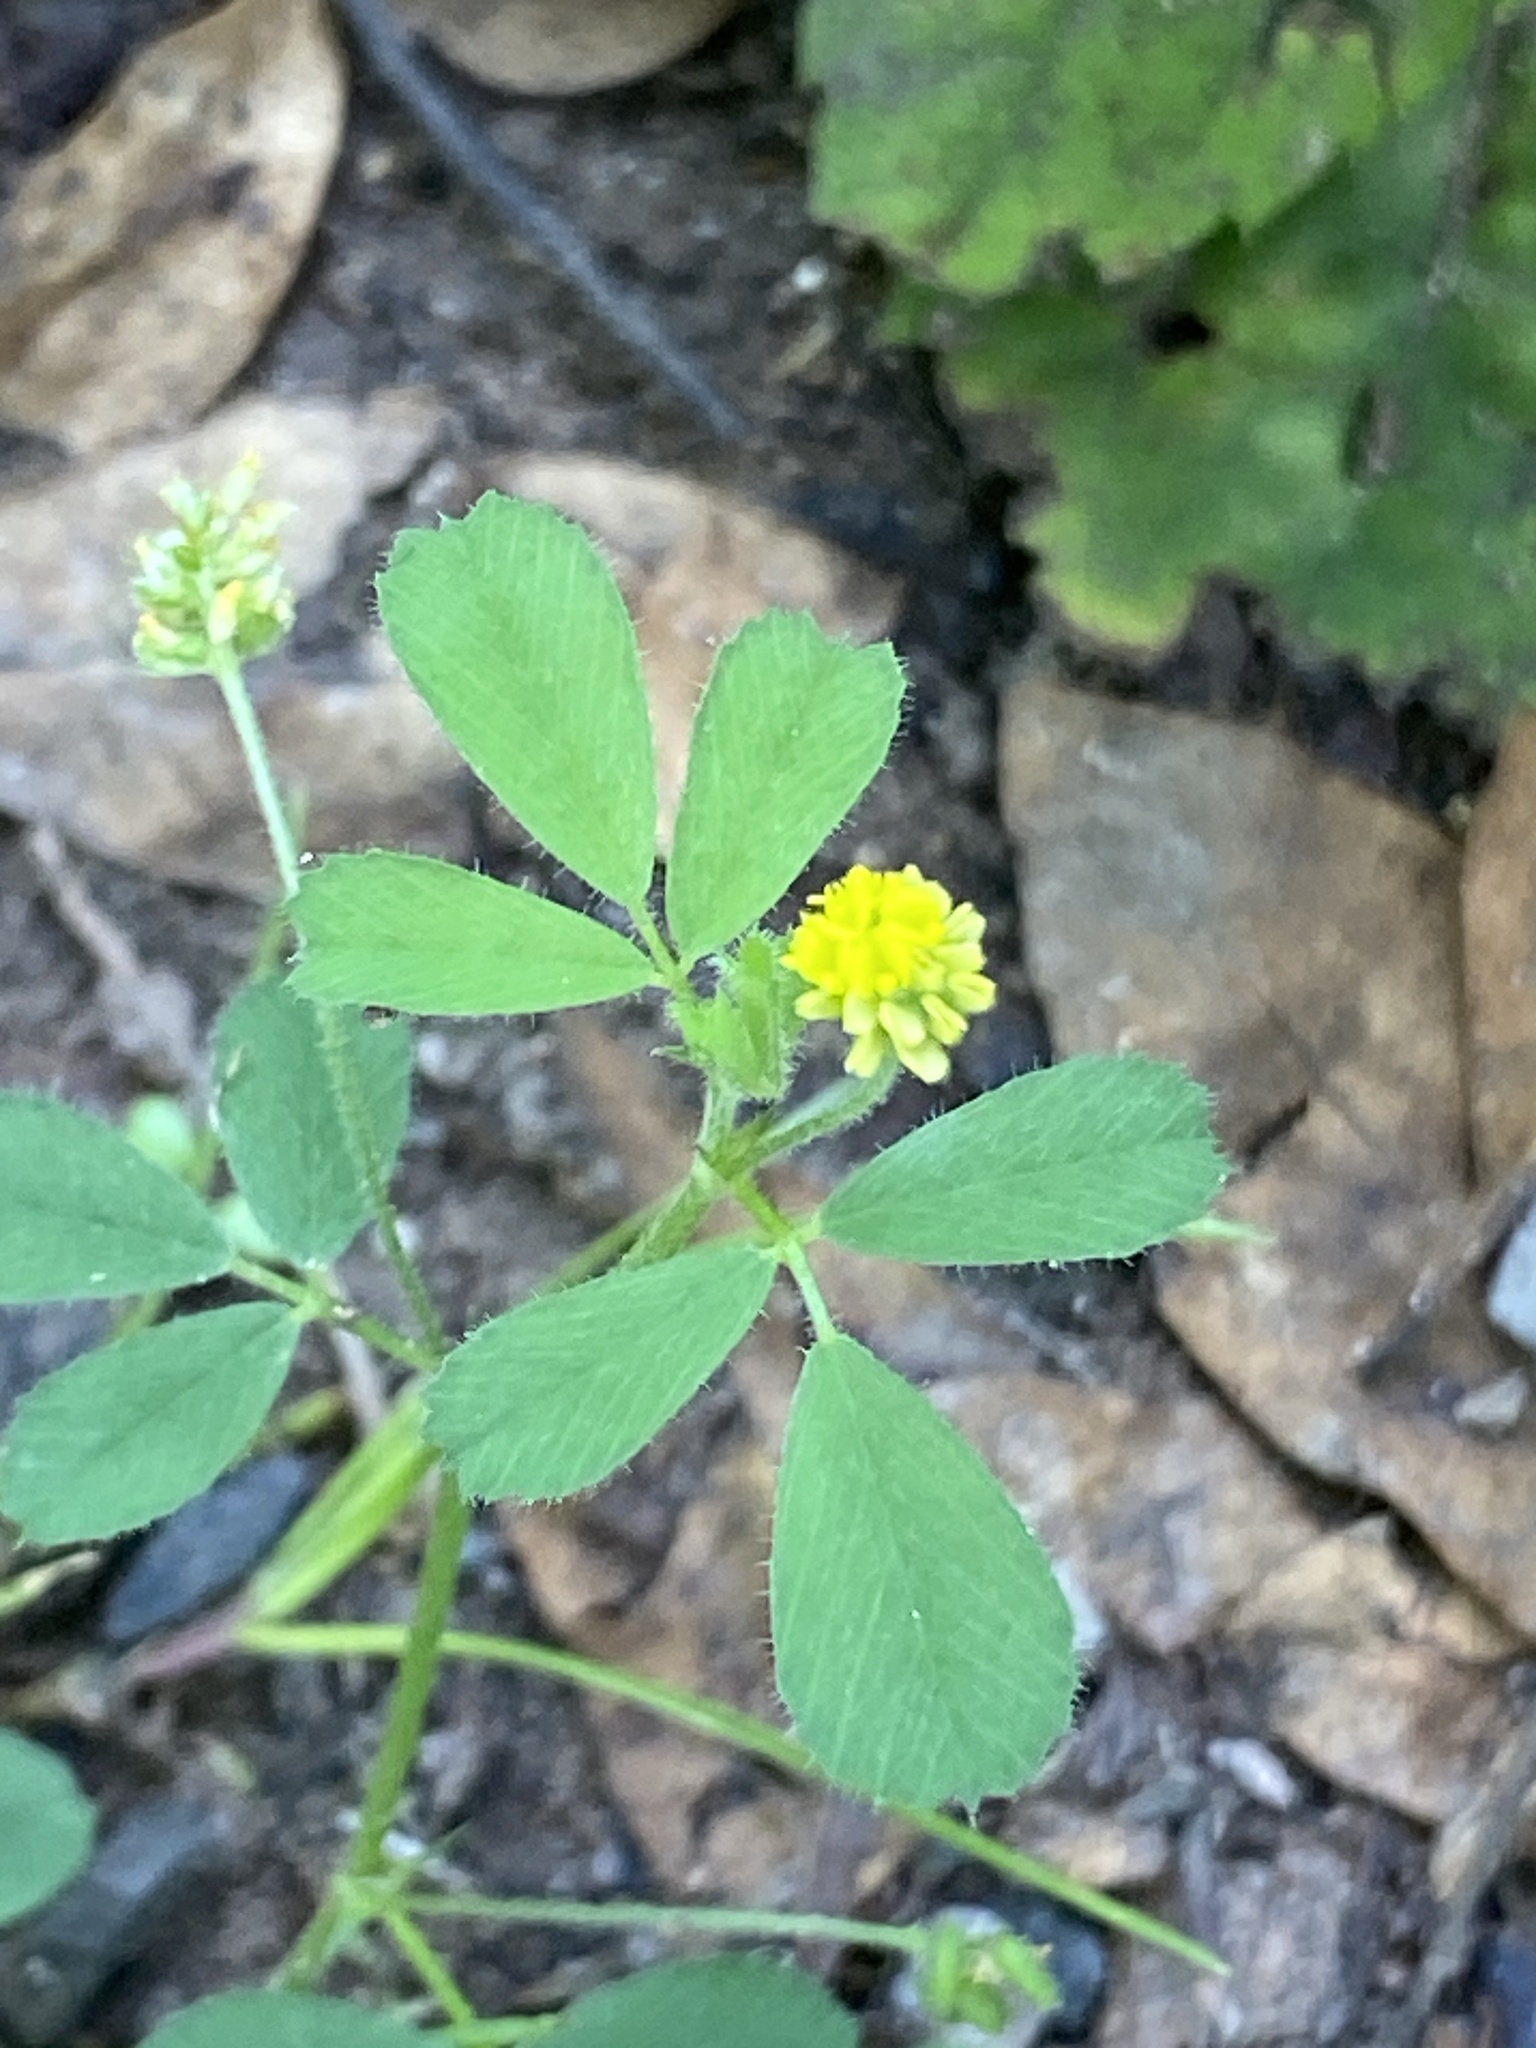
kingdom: Plantae
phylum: Tracheophyta
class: Magnoliopsida
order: Fabales
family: Fabaceae
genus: Medicago
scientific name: Medicago lupulina
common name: Black medick
